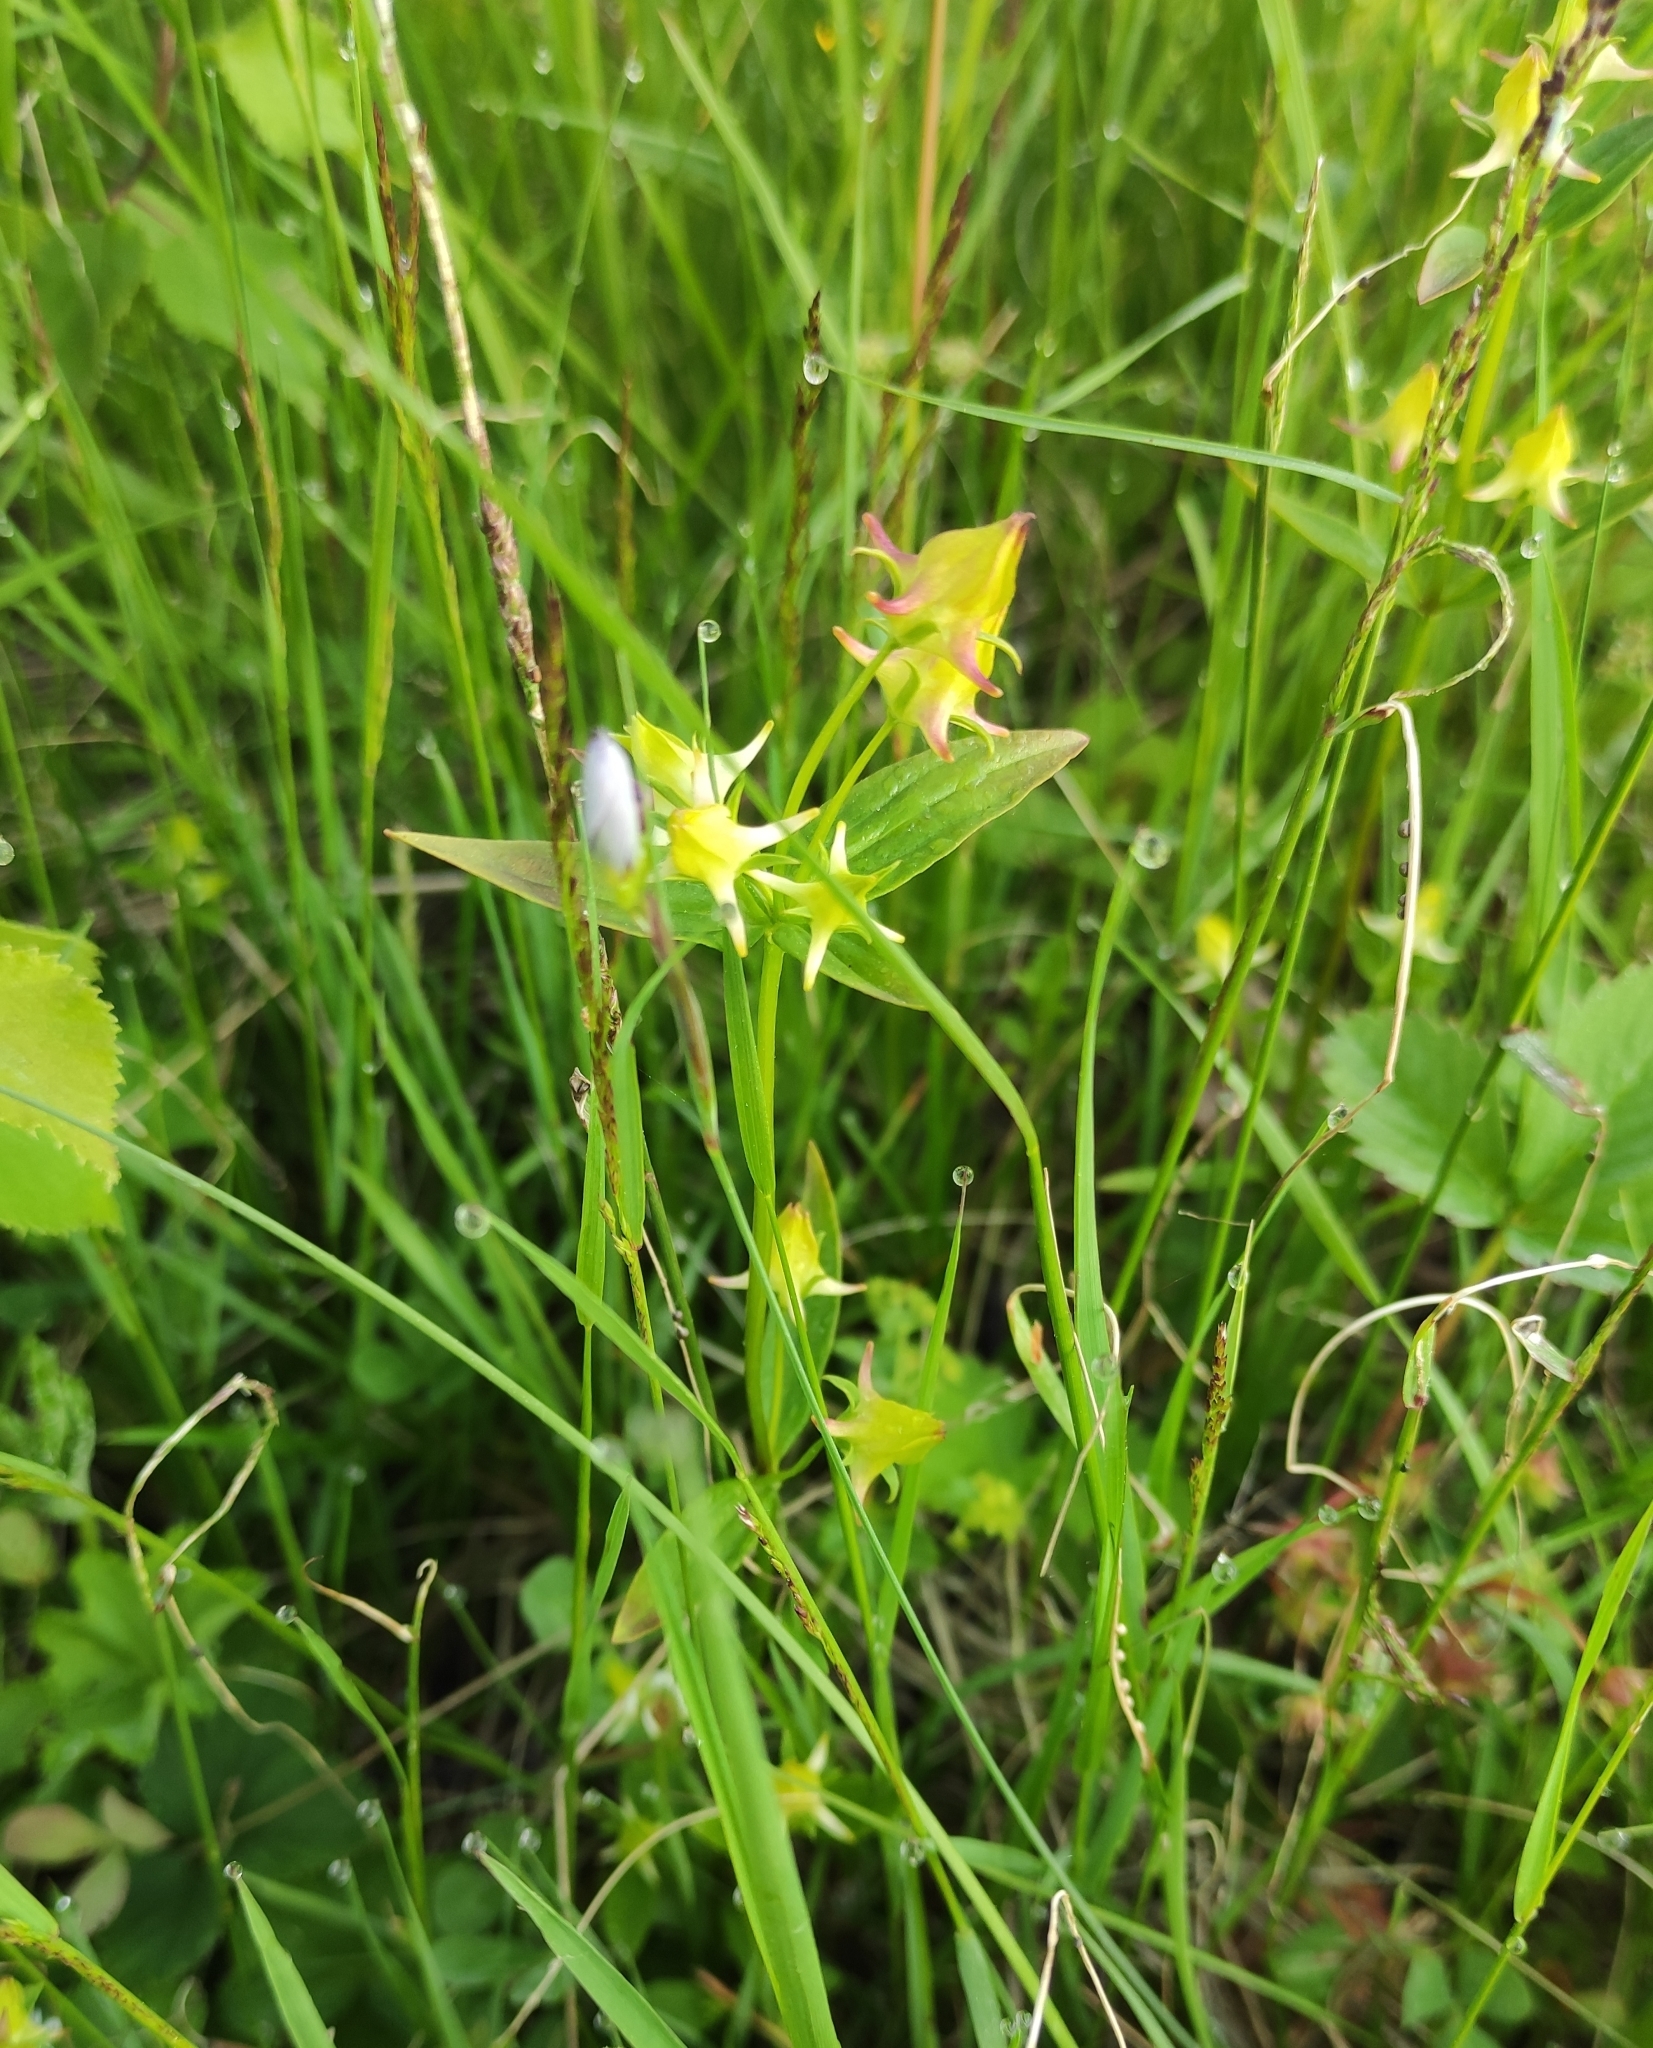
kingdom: Plantae
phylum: Tracheophyta
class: Magnoliopsida
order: Gentianales
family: Gentianaceae
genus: Halenia
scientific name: Halenia corniculata
